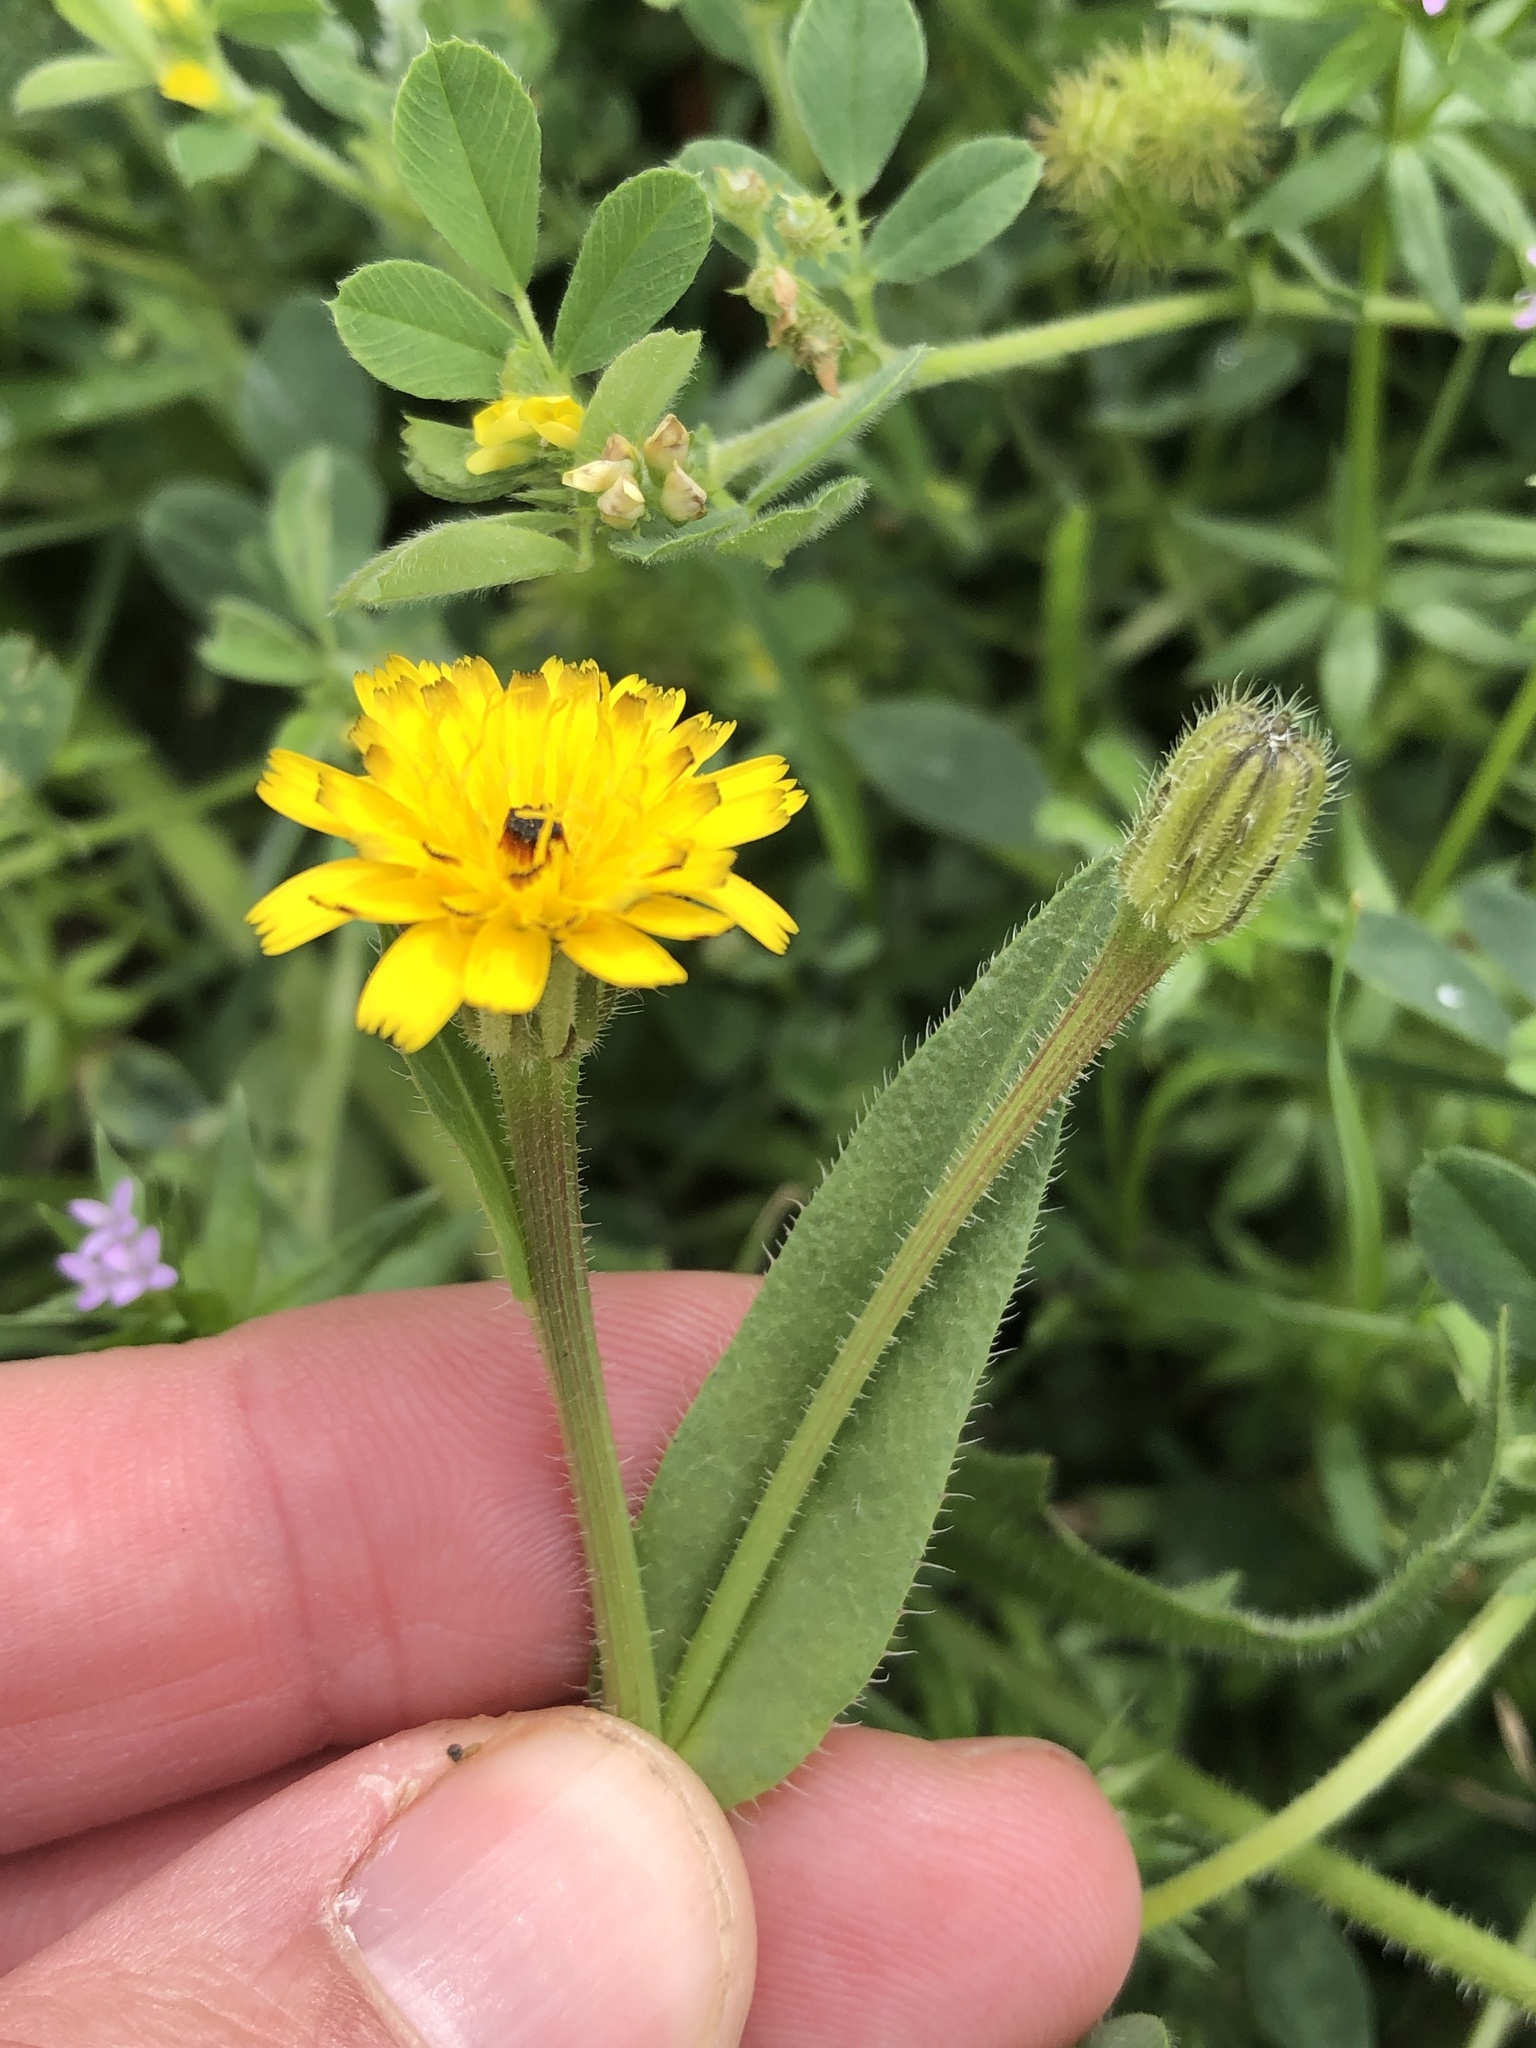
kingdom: Plantae
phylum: Tracheophyta
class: Magnoliopsida
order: Asterales
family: Asteraceae
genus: Hedypnois
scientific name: Hedypnois rhagadioloides
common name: Cretan weed
